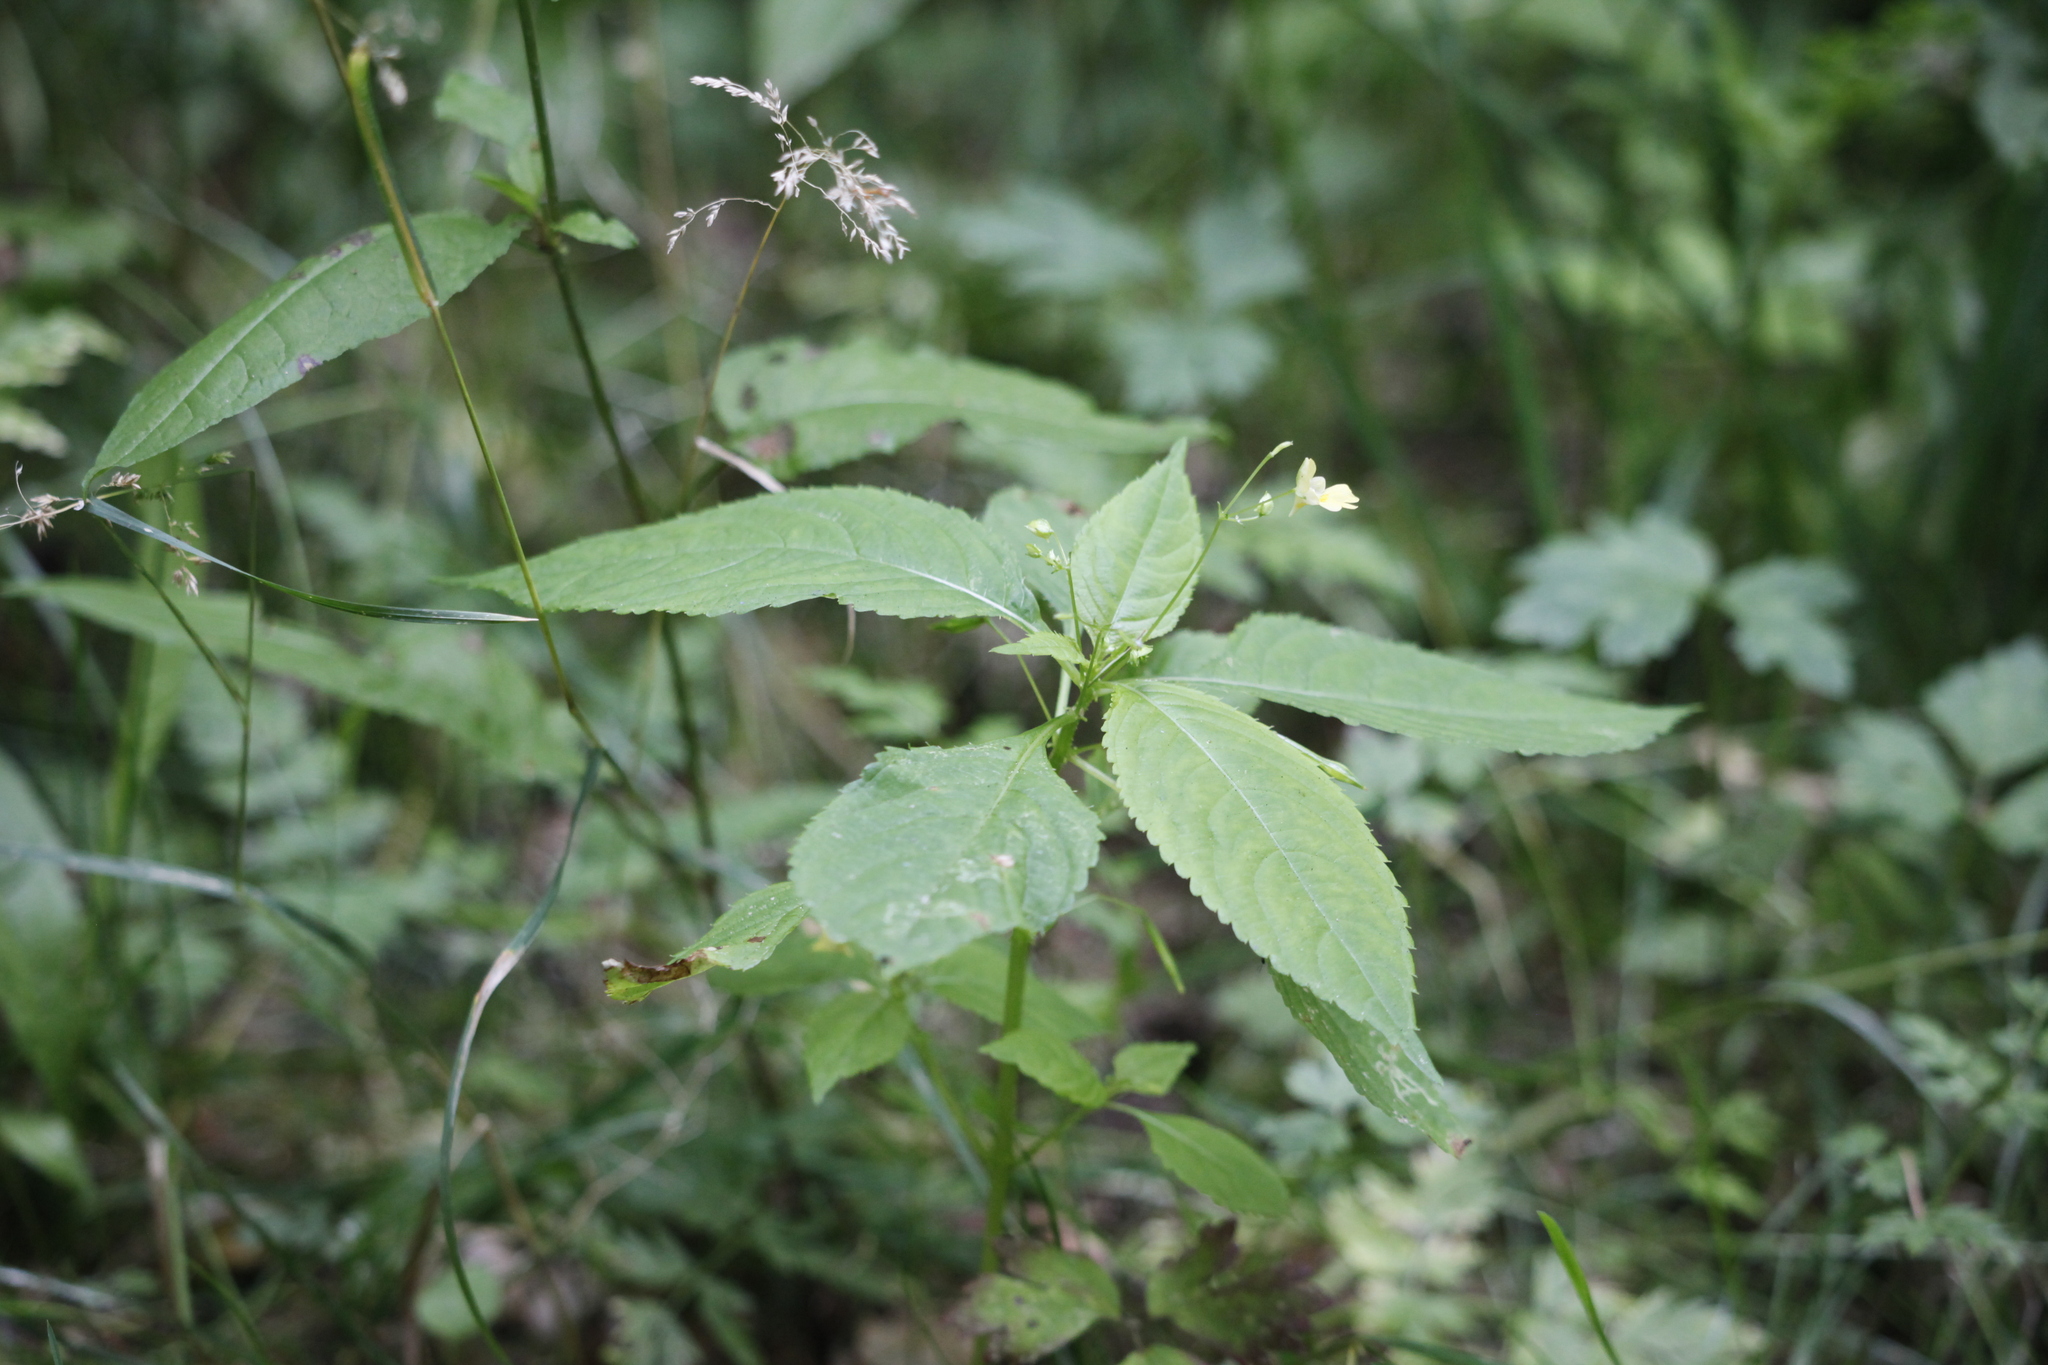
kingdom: Plantae
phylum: Tracheophyta
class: Magnoliopsida
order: Ericales
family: Balsaminaceae
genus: Impatiens
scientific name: Impatiens parviflora
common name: Small balsam
